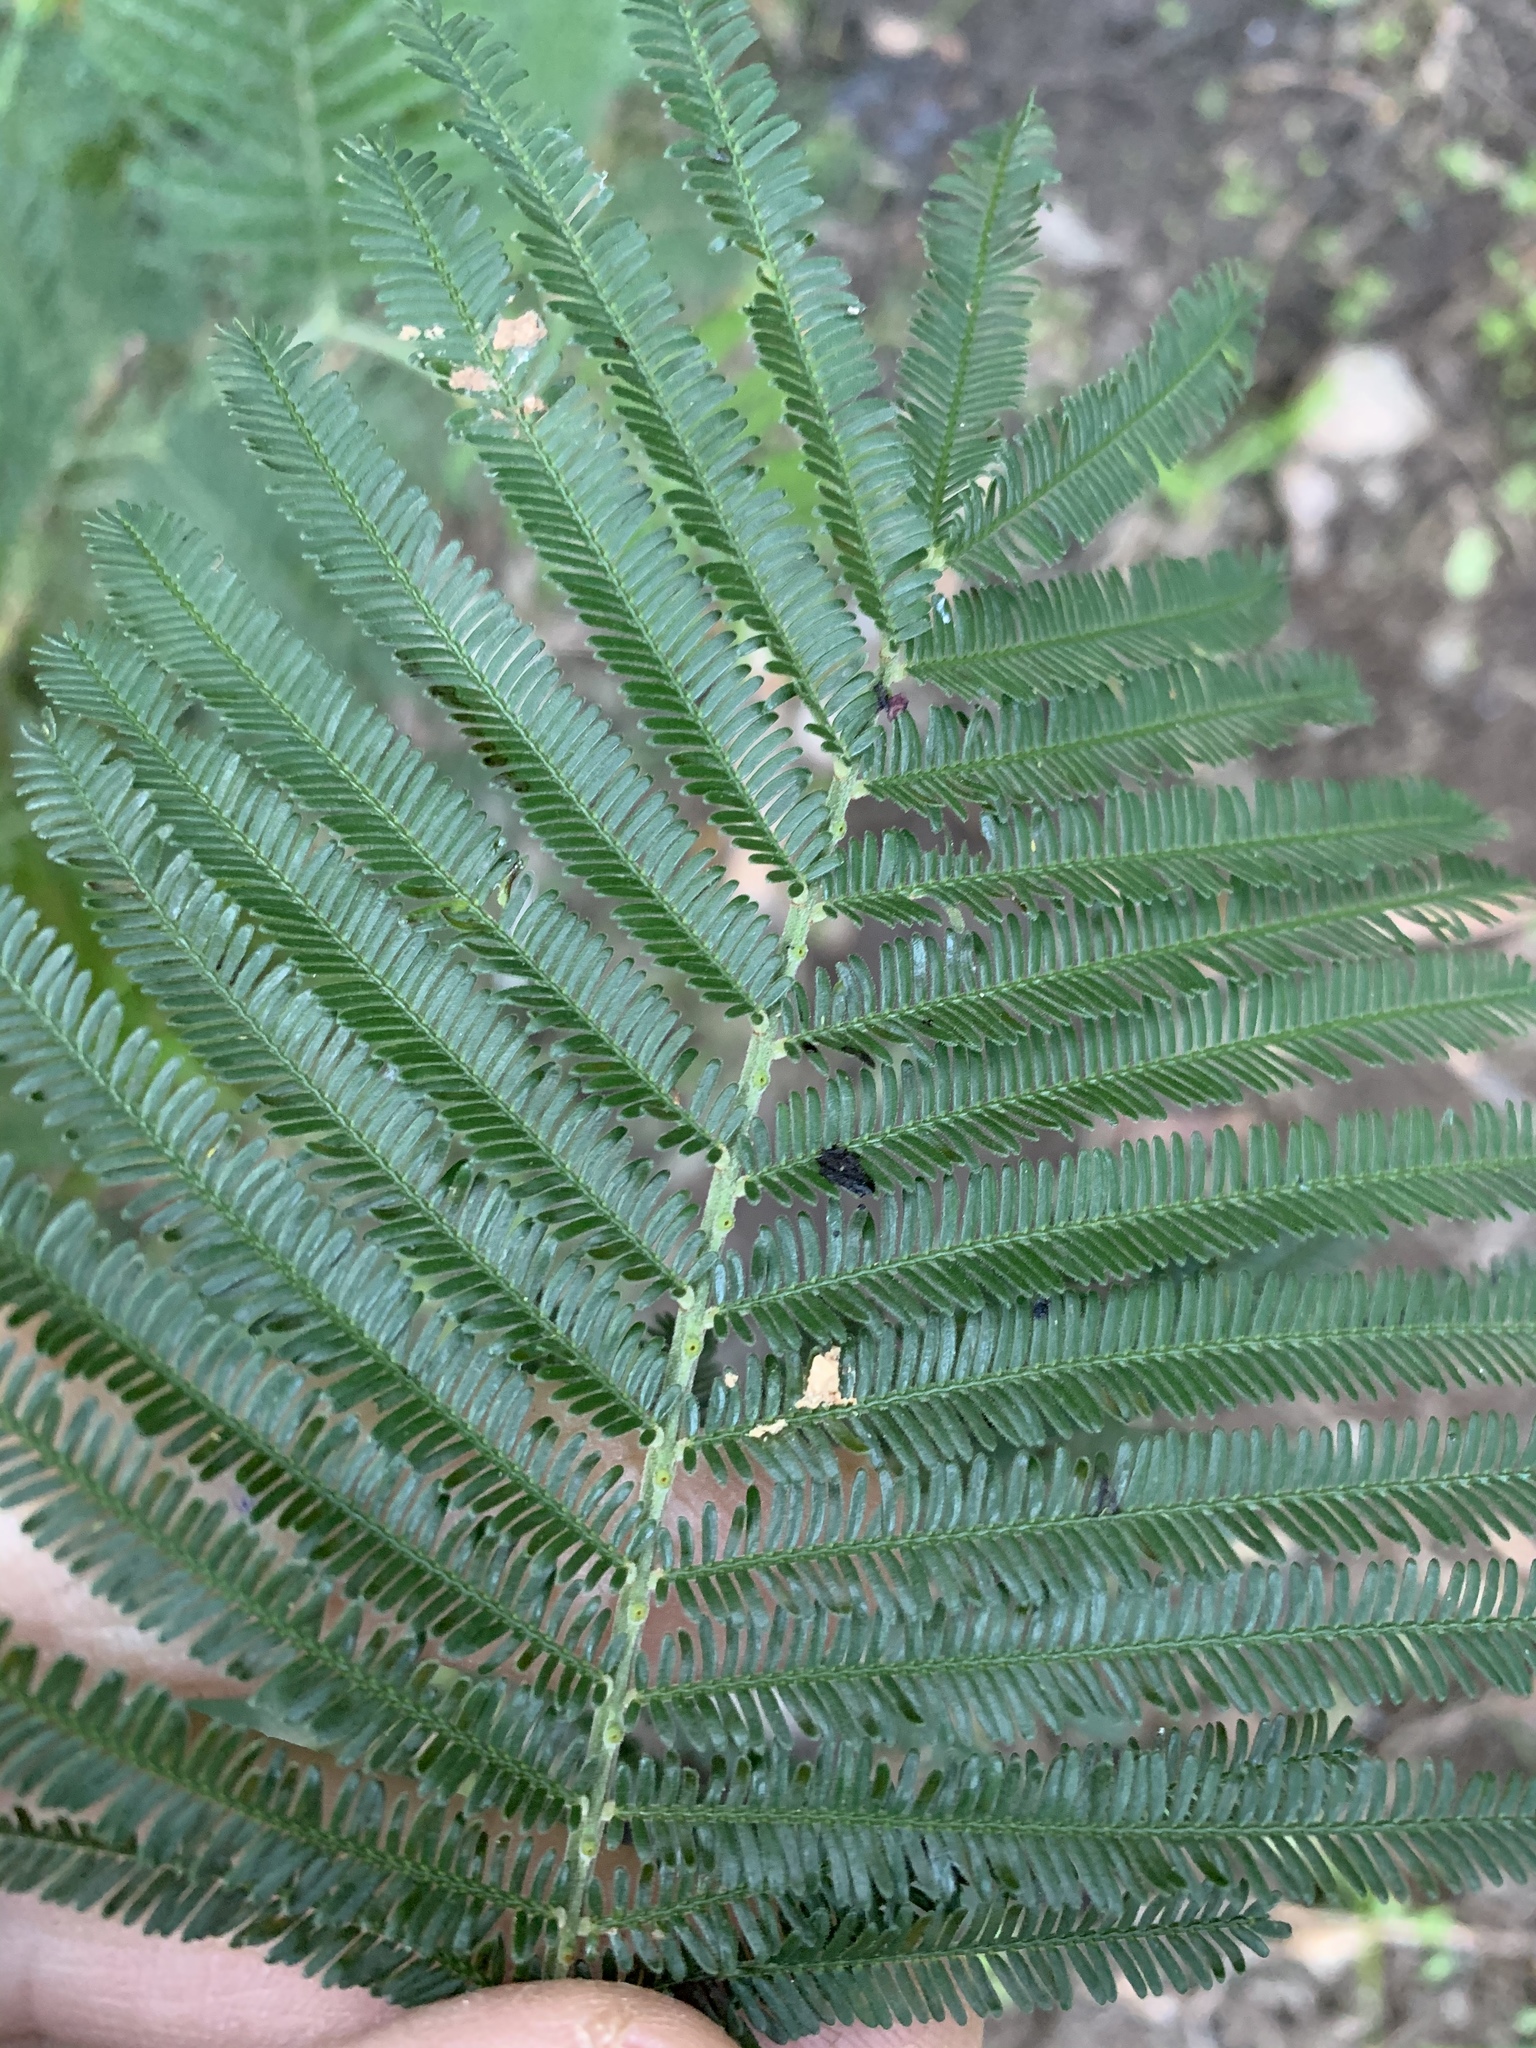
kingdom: Plantae
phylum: Tracheophyta
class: Magnoliopsida
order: Fabales
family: Fabaceae
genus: Acacia
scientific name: Acacia mearnsii
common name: Black wattle
